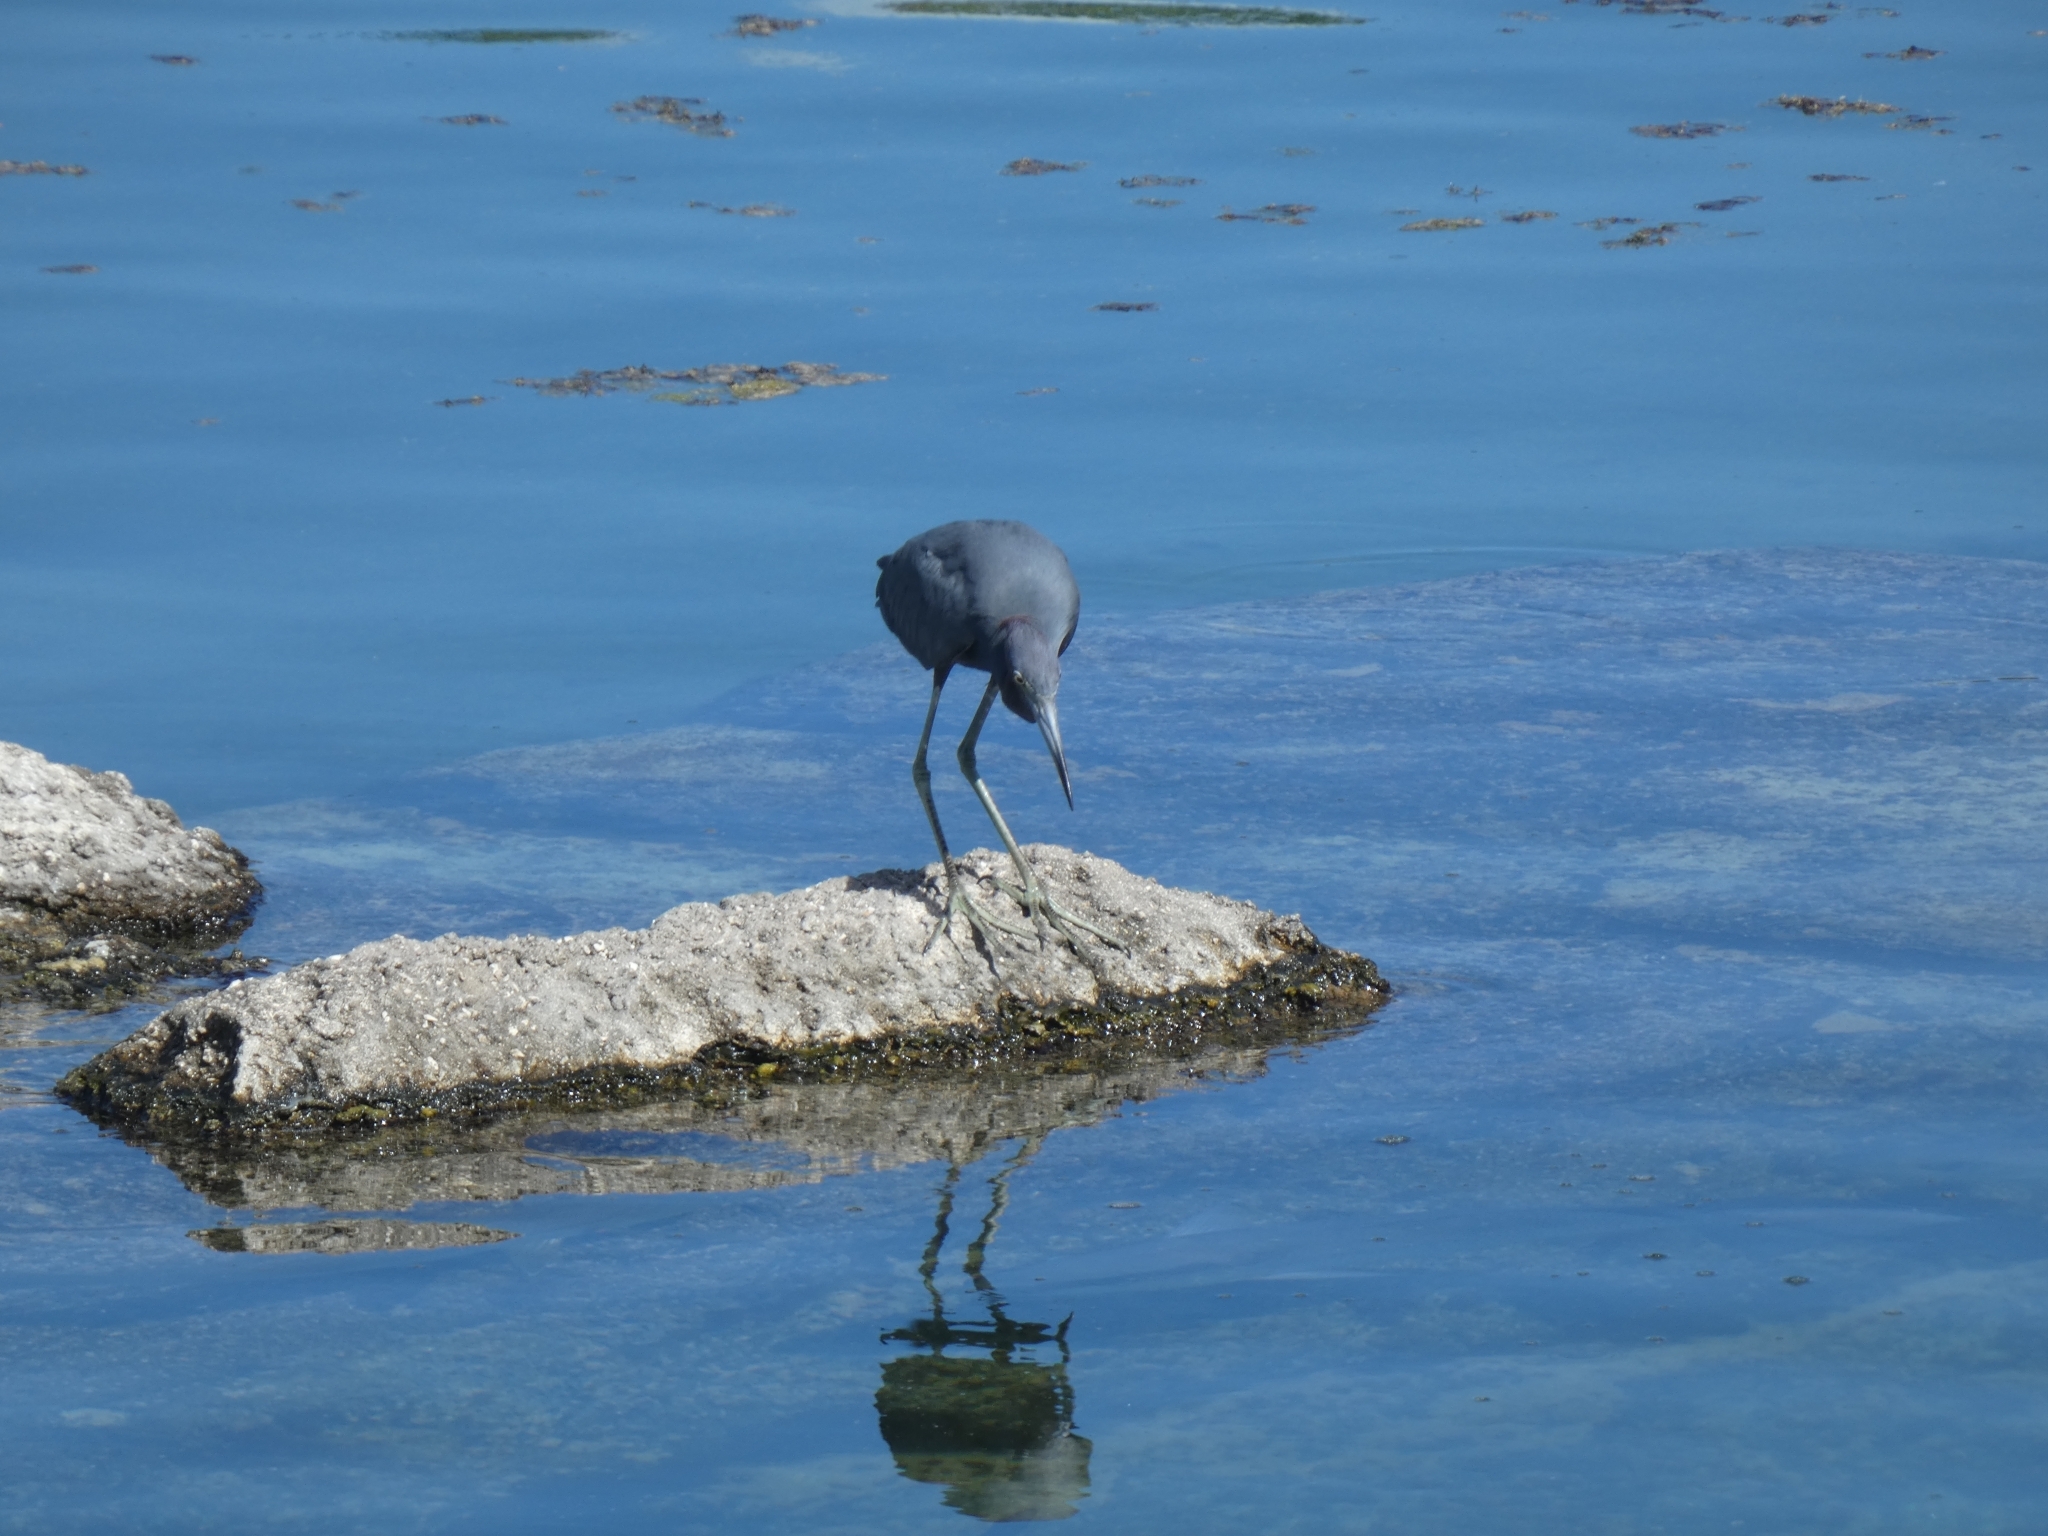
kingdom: Animalia
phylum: Chordata
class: Aves
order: Pelecaniformes
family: Ardeidae
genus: Egretta
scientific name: Egretta caerulea
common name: Little blue heron
